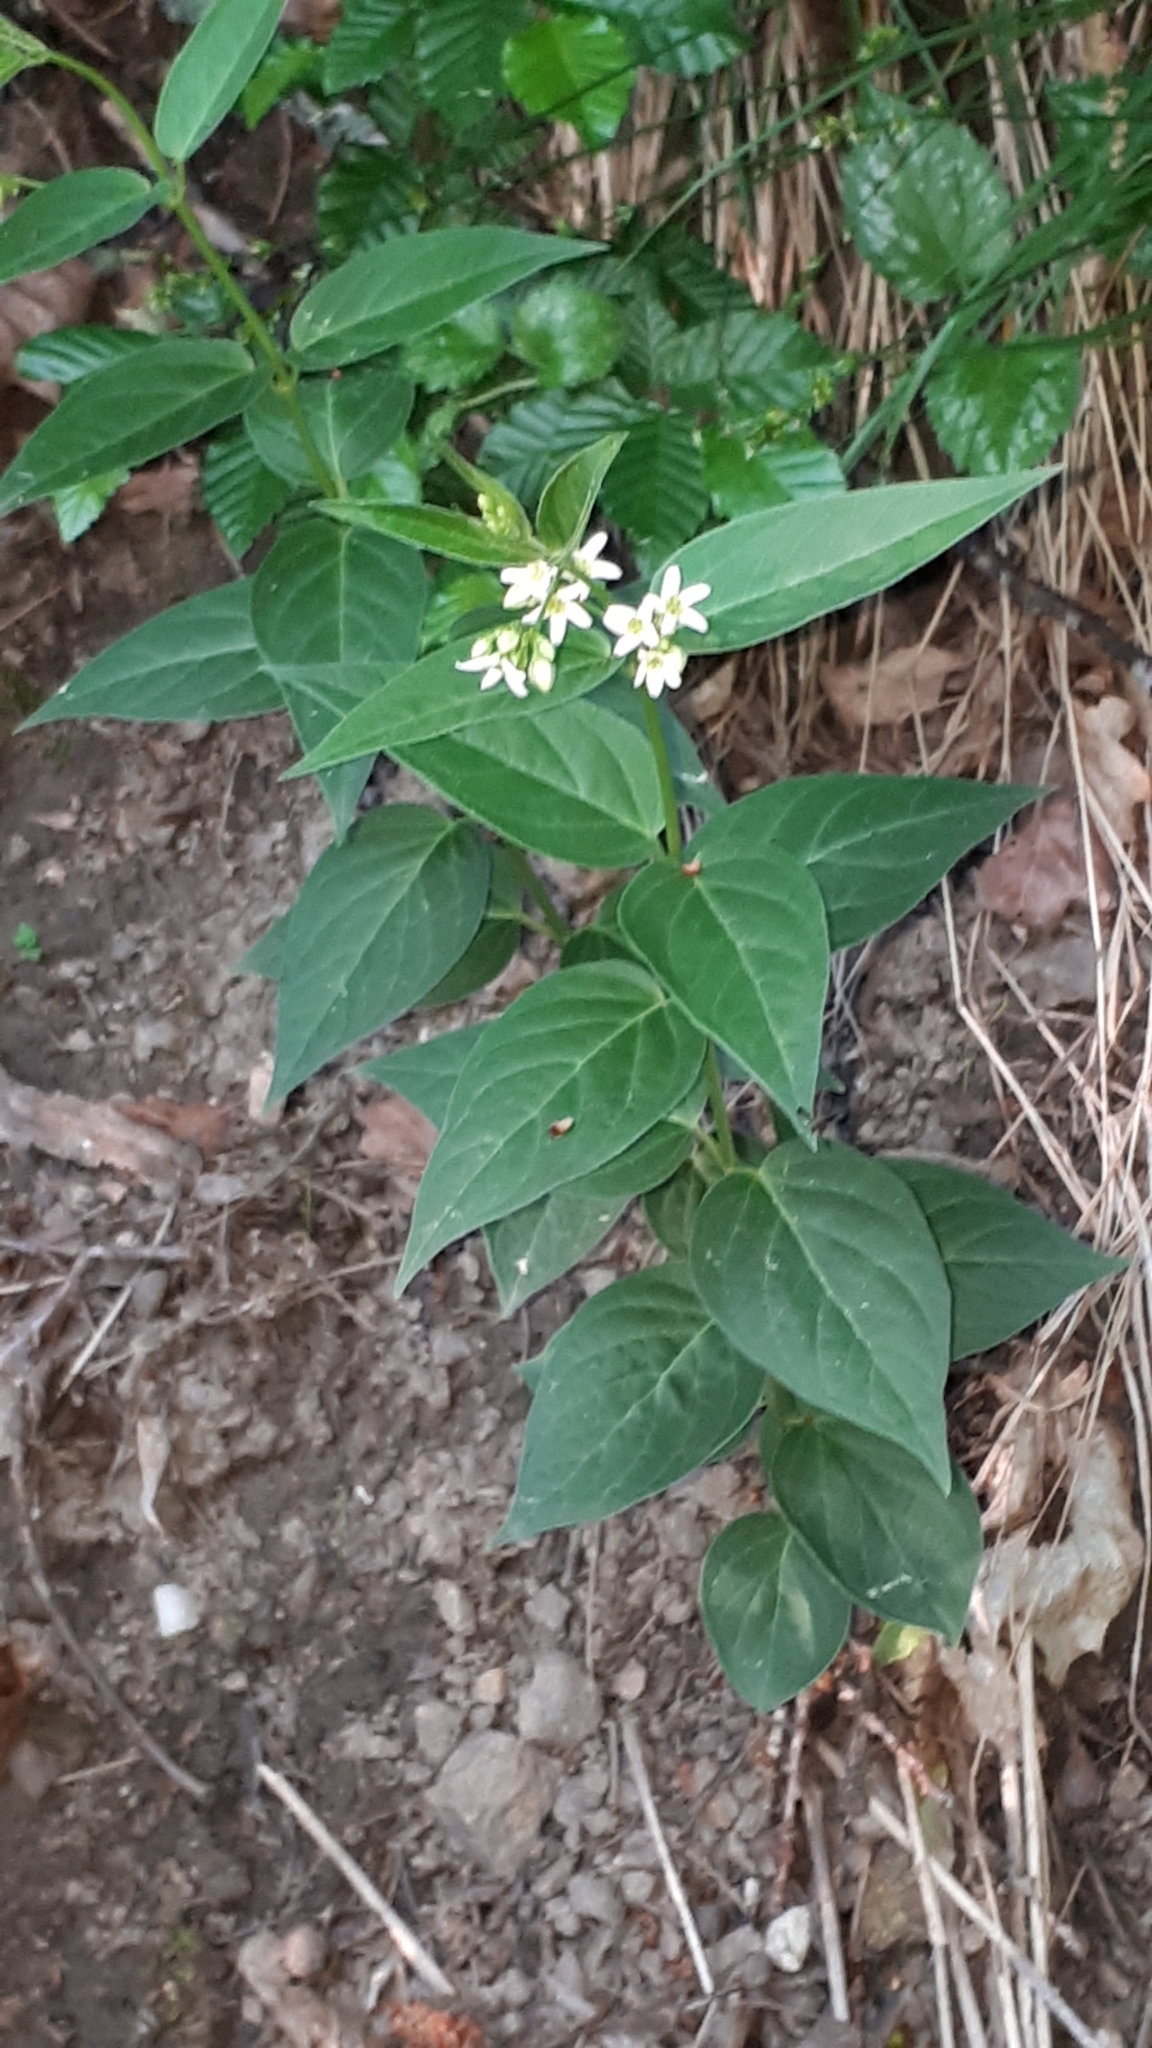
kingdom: Plantae
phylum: Tracheophyta
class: Magnoliopsida
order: Gentianales
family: Apocynaceae
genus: Vincetoxicum
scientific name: Vincetoxicum hirundinaria
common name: White swallowwort
